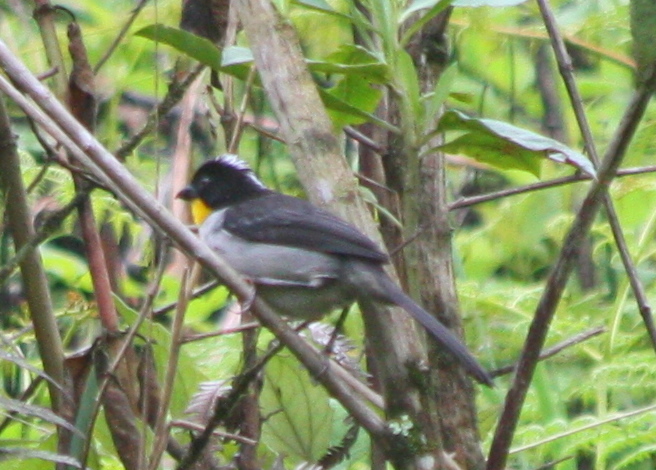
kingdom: Animalia
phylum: Chordata
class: Aves
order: Passeriformes
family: Passerellidae
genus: Atlapetes
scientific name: Atlapetes albinucha
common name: White-naped brush-finch
